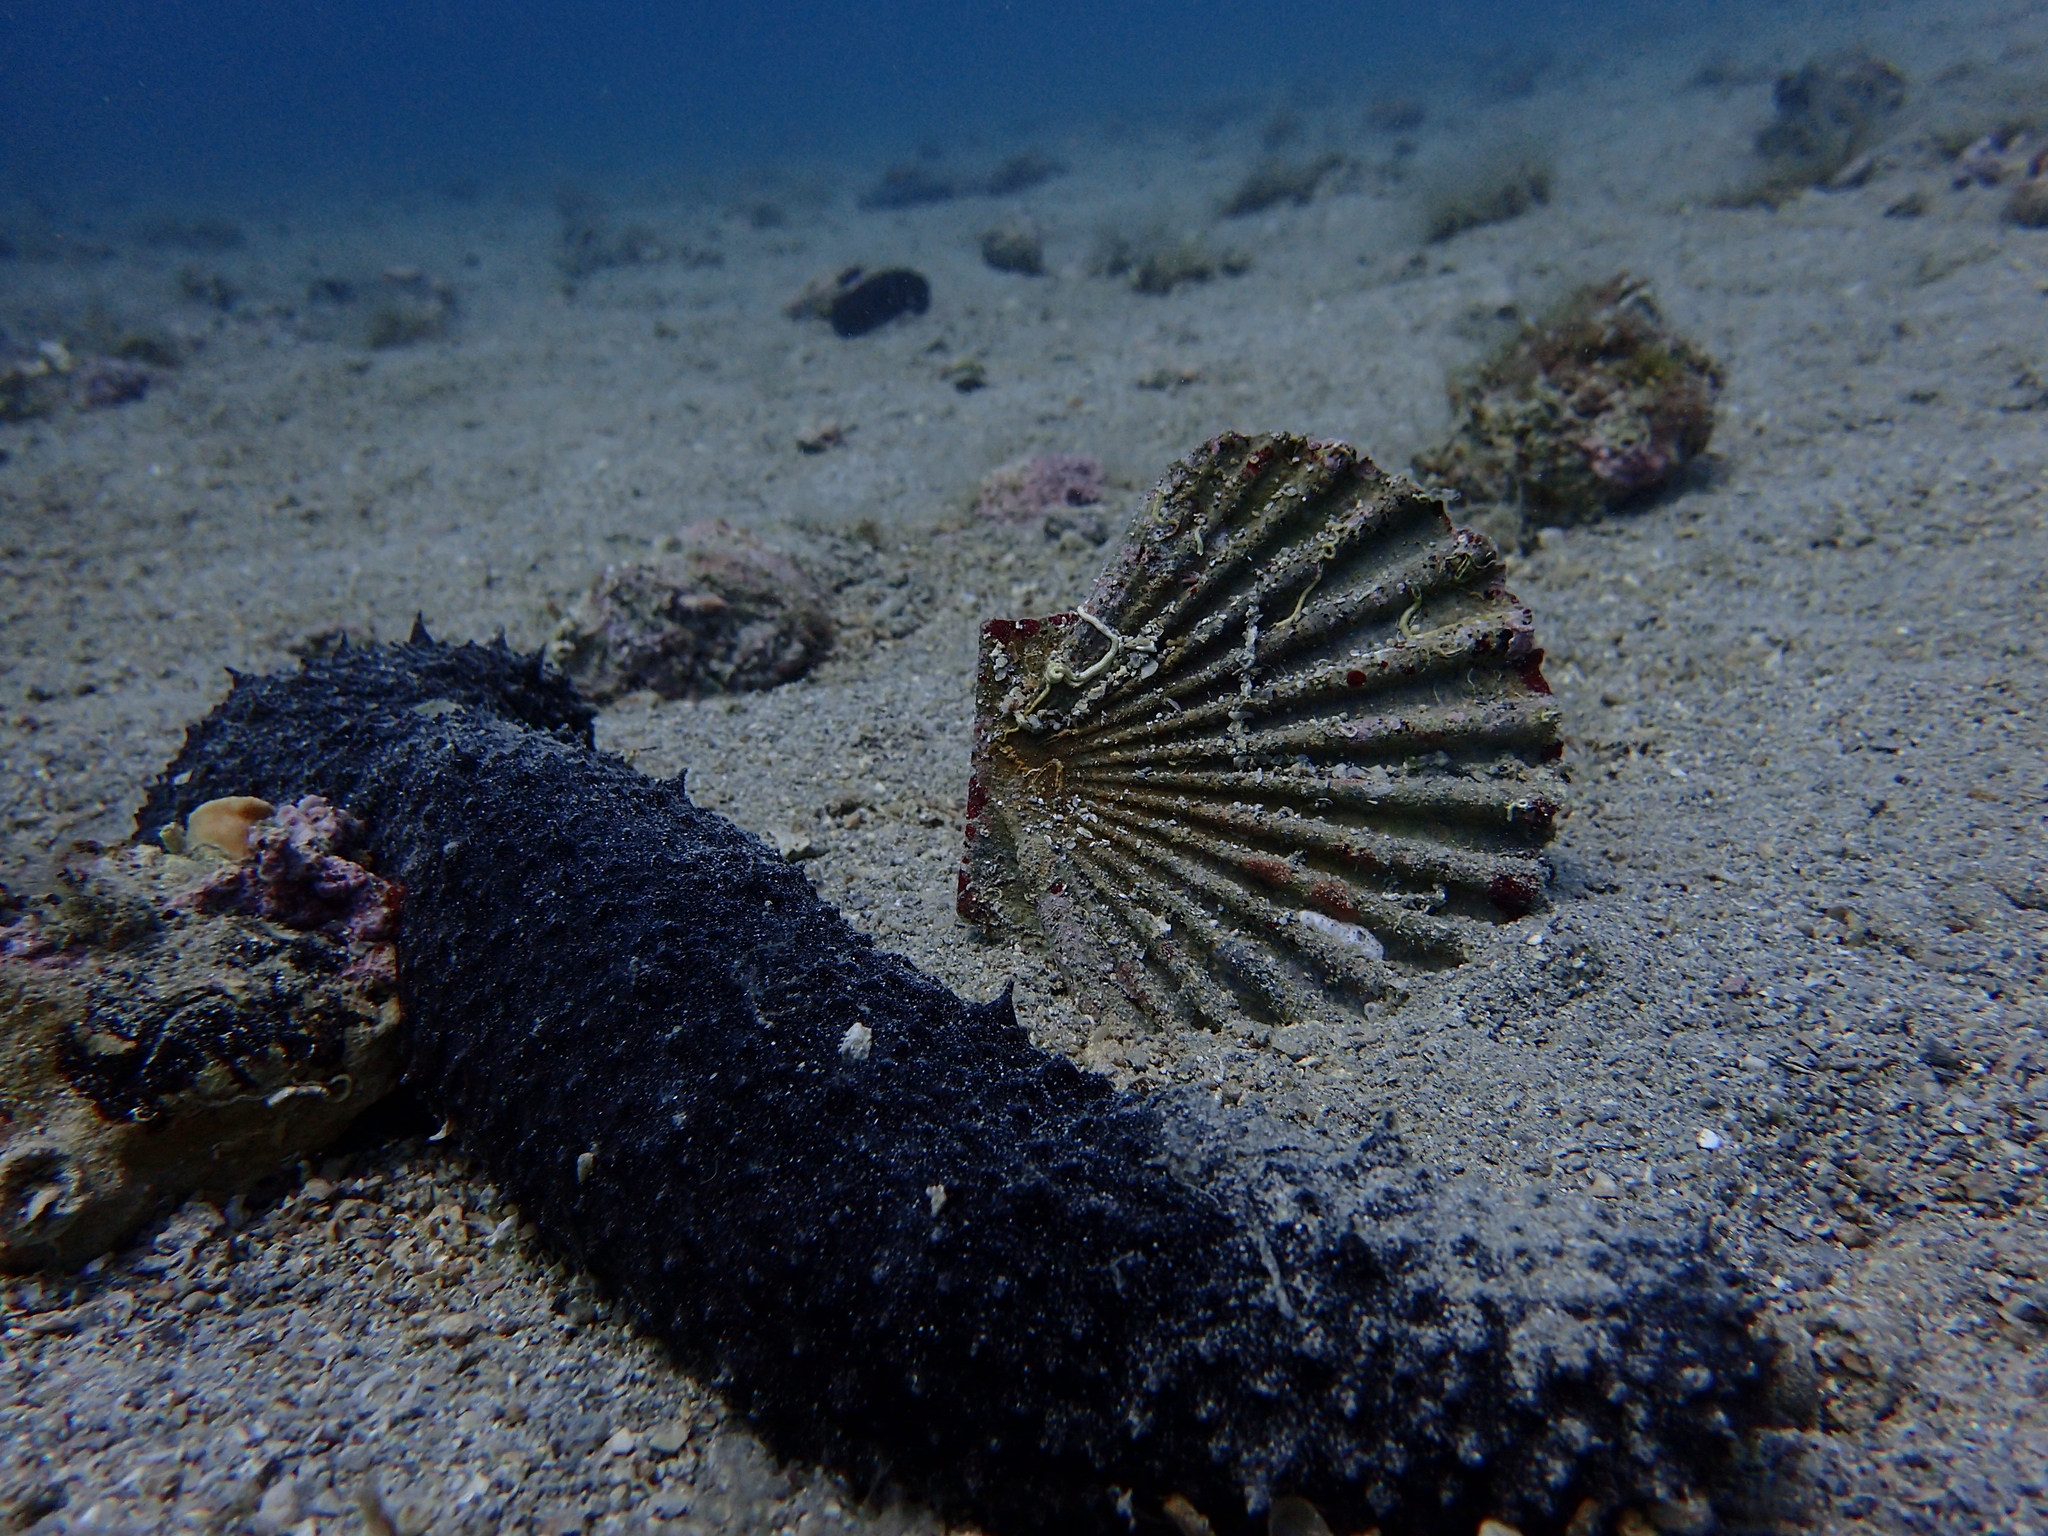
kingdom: Animalia
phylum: Mollusca
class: Bivalvia
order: Pectinida
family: Pectinidae
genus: Pecten
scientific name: Pecten jacobaeus
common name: St.james's scallop
